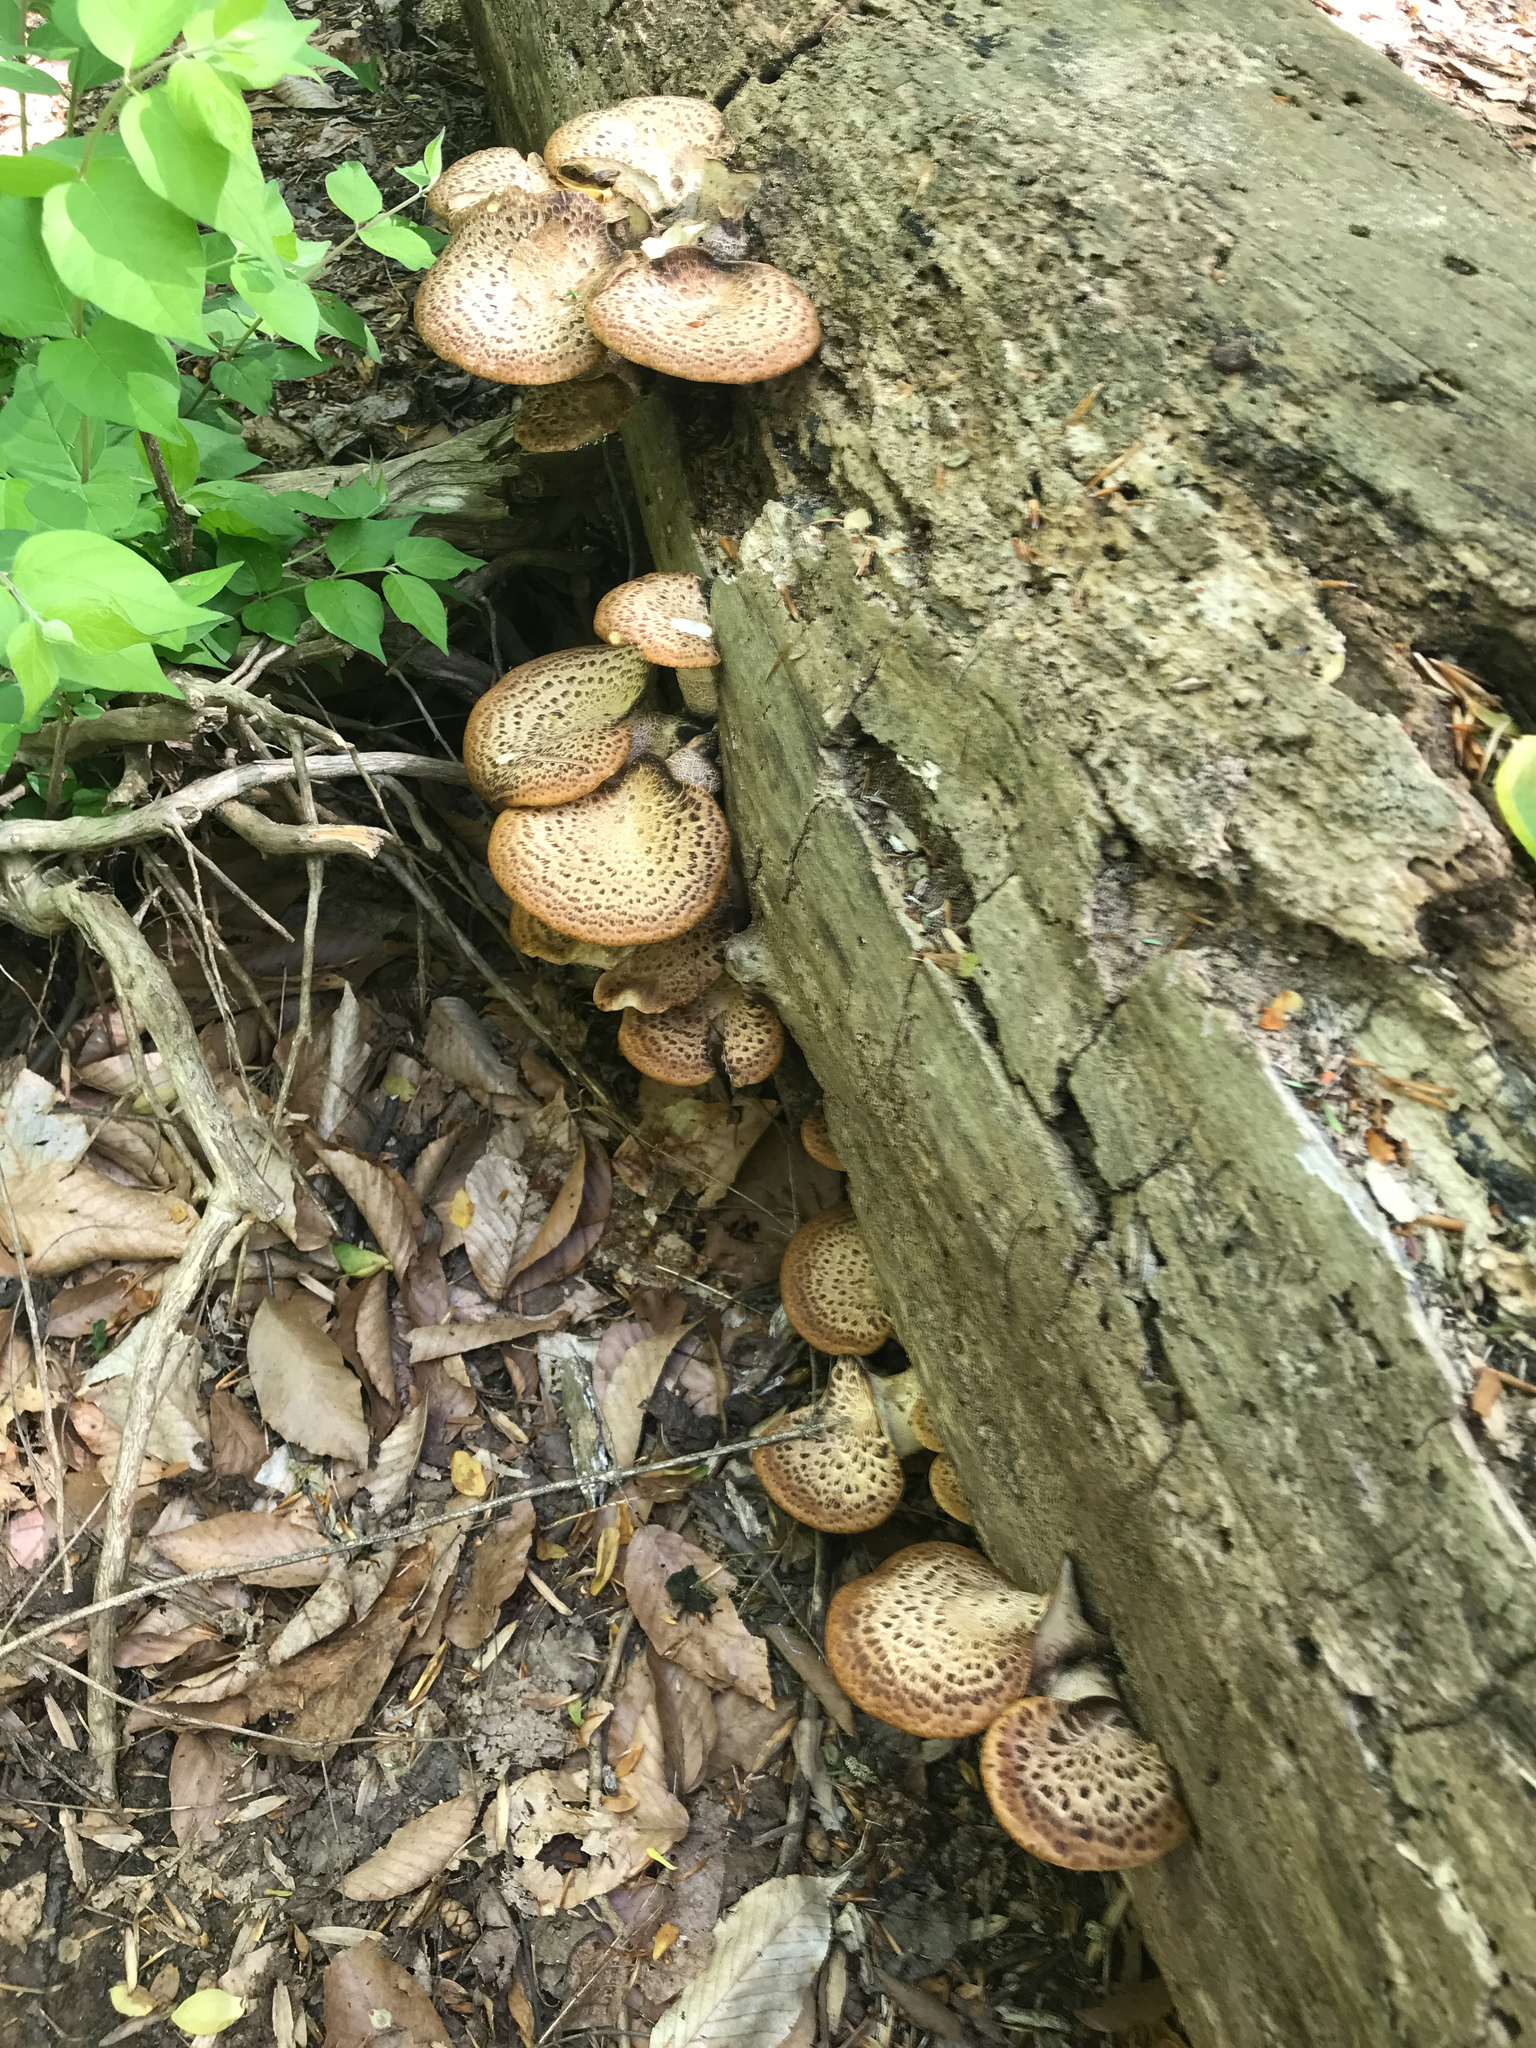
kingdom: Fungi
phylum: Basidiomycota
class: Agaricomycetes
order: Polyporales
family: Polyporaceae
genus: Cerioporus
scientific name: Cerioporus squamosus
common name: Dryad's saddle
